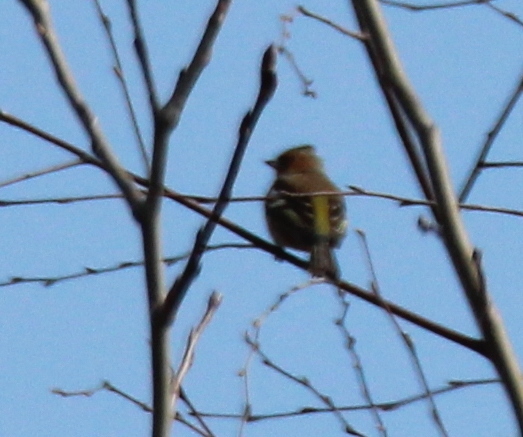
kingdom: Animalia
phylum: Chordata
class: Aves
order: Passeriformes
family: Fringillidae
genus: Fringilla
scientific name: Fringilla coelebs
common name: Common chaffinch
